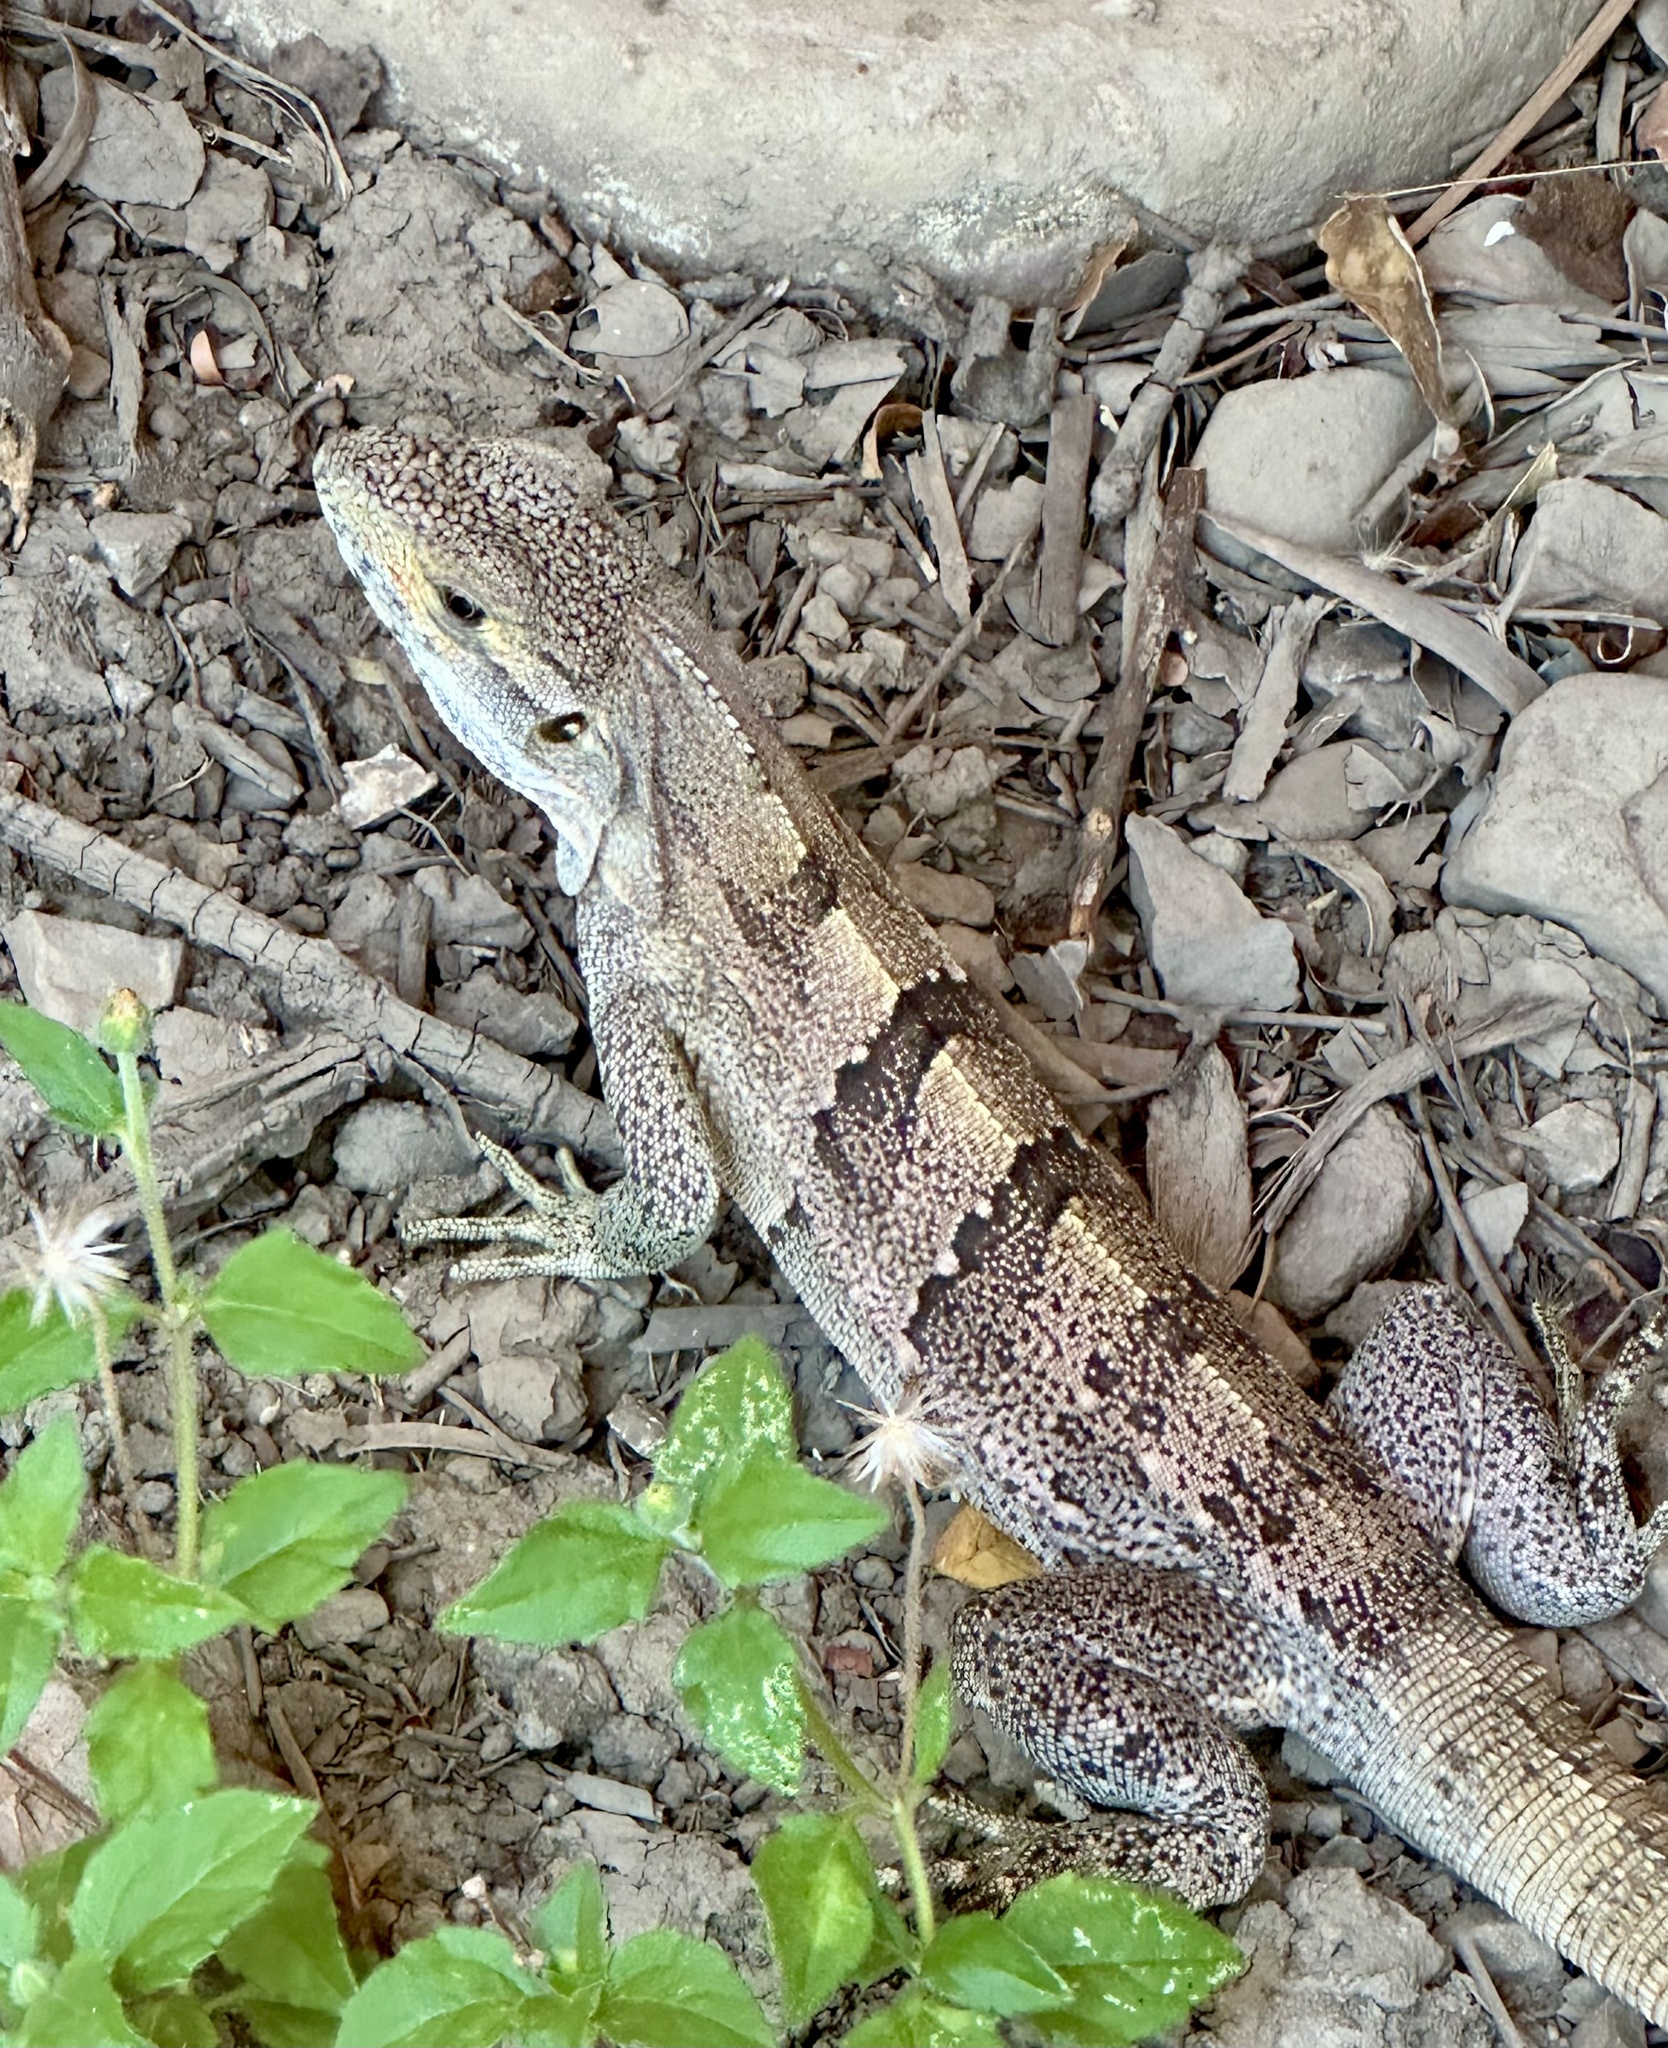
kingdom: Animalia
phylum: Chordata
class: Squamata
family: Iguanidae
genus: Ctenosaura
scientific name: Ctenosaura similis
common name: Black spiny-tailed iguana
